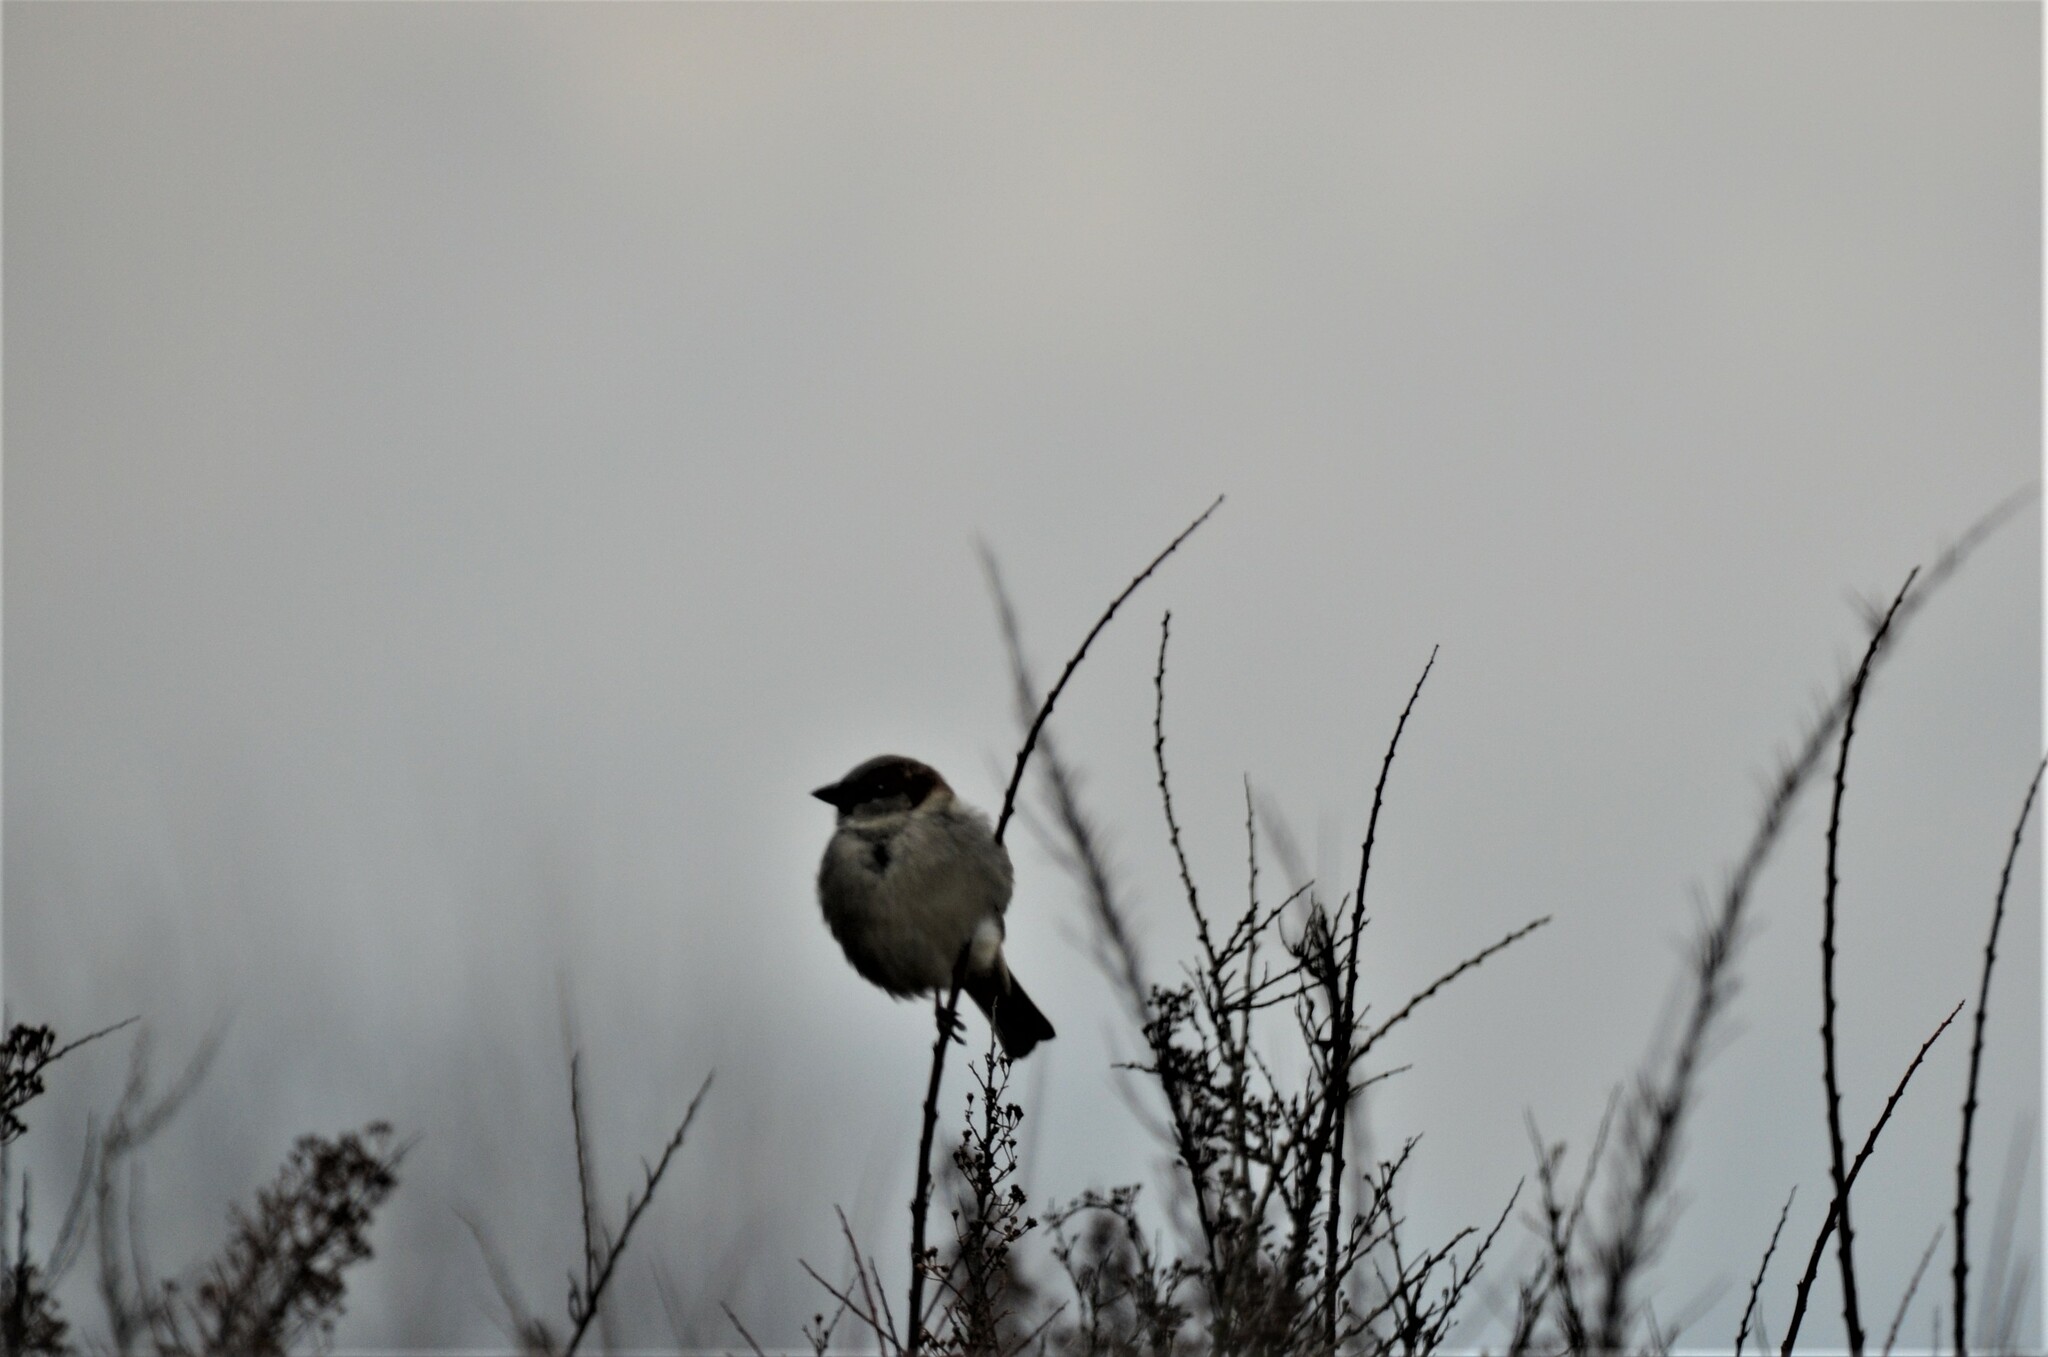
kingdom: Animalia
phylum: Chordata
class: Aves
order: Passeriformes
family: Passeridae
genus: Passer
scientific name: Passer domesticus
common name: House sparrow
